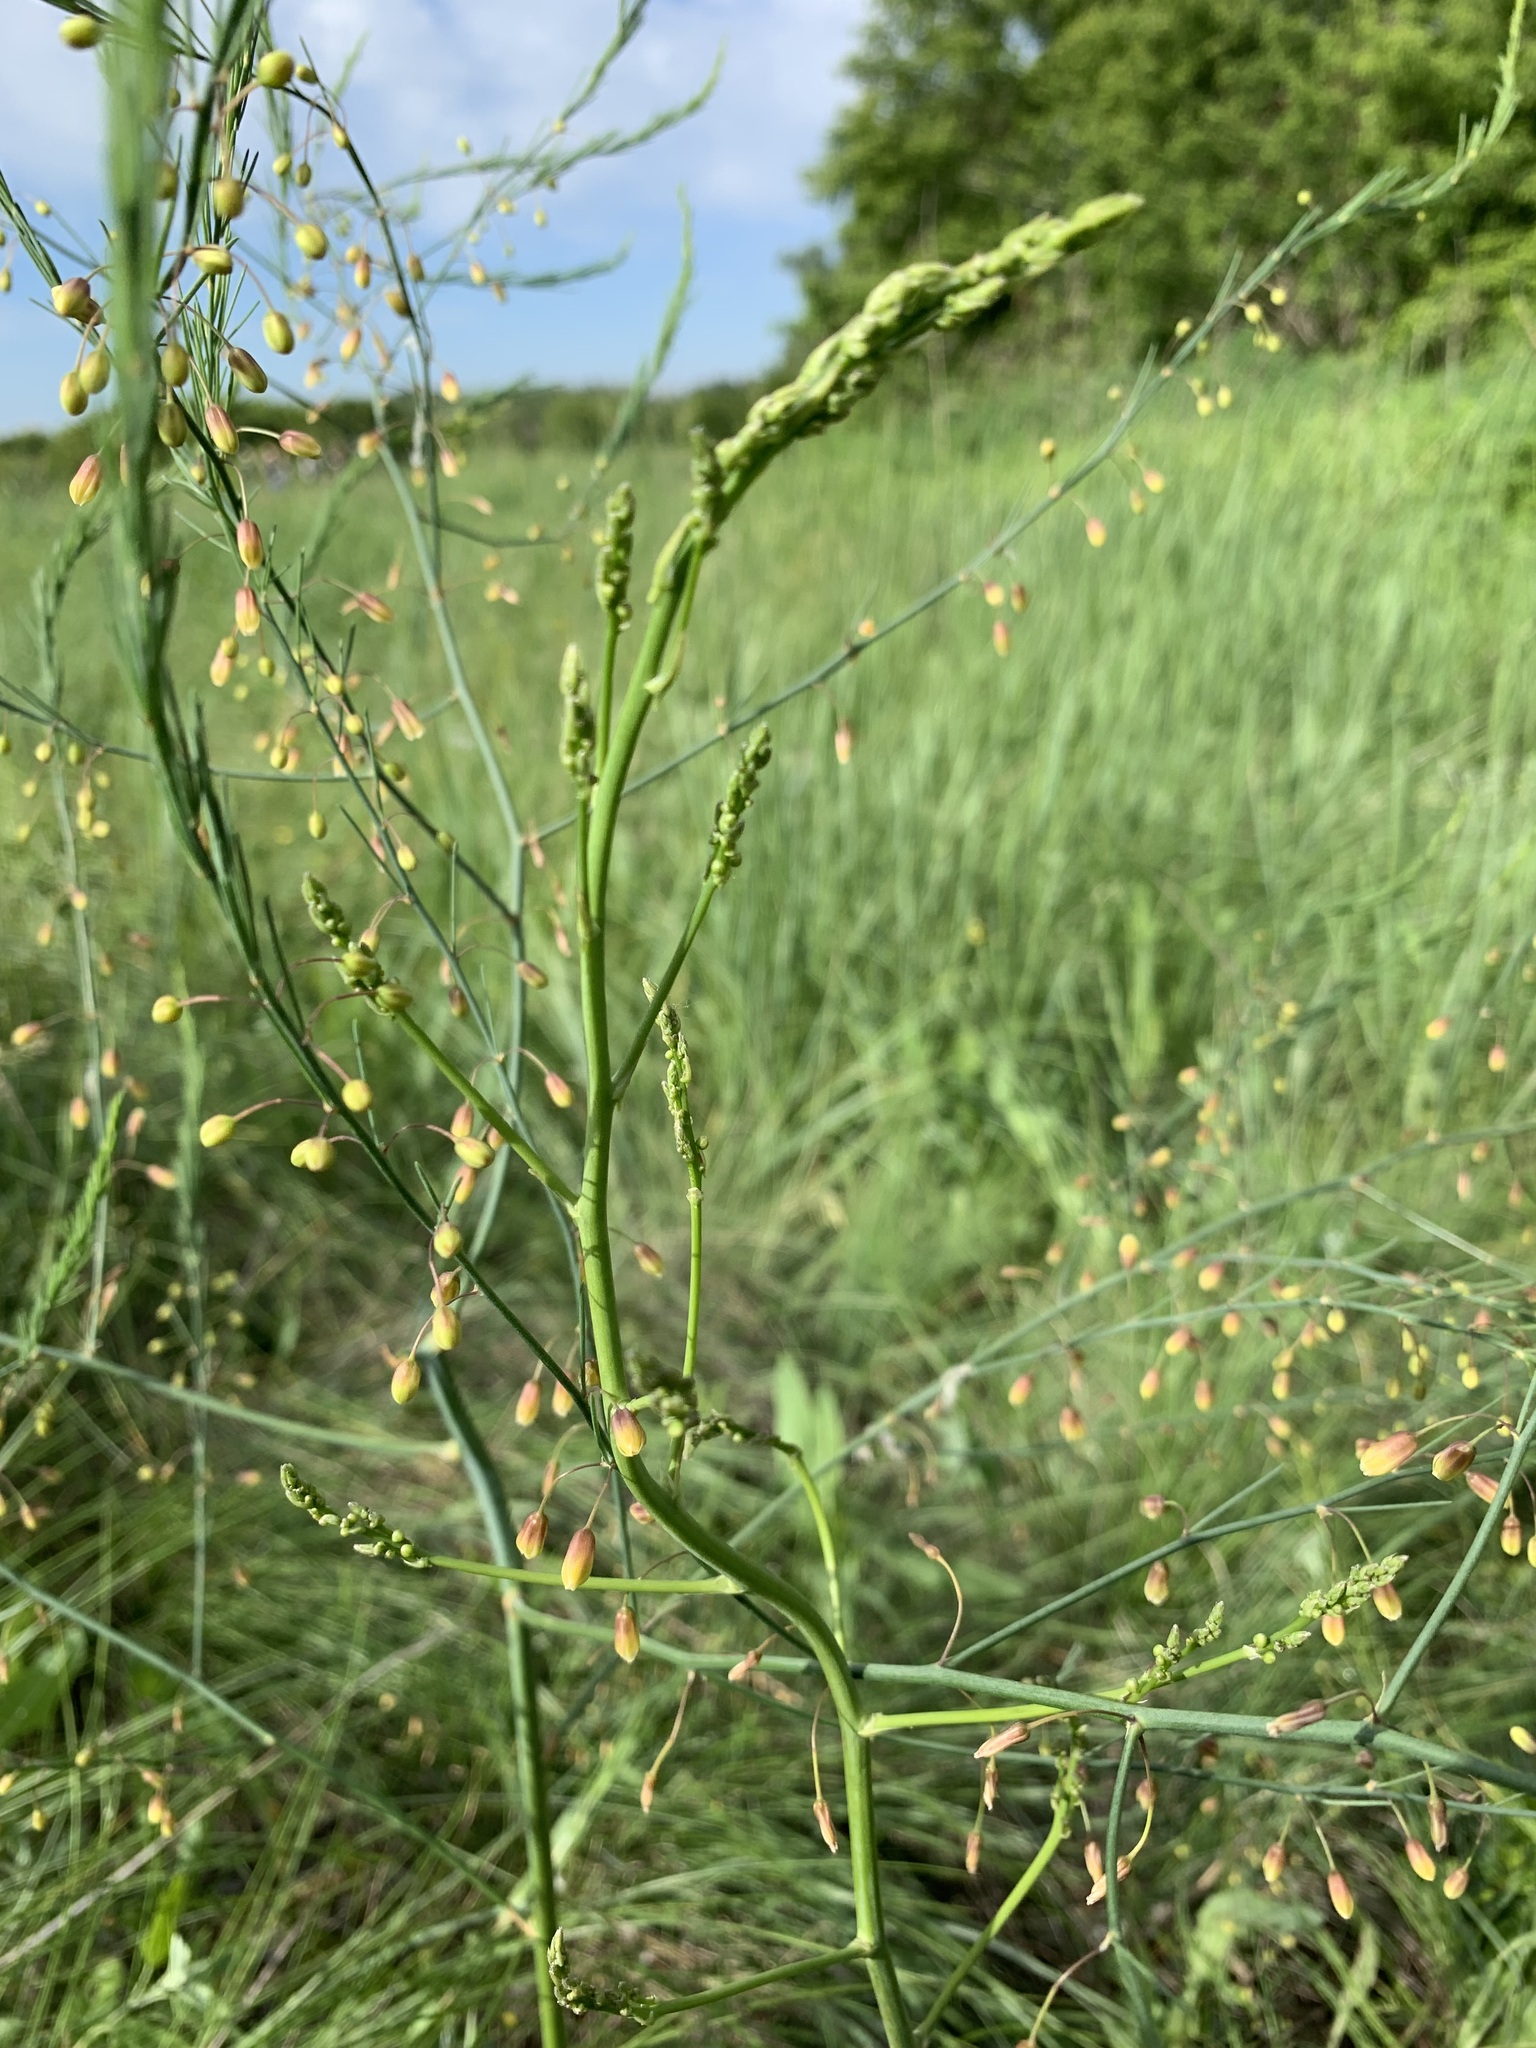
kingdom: Plantae
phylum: Tracheophyta
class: Liliopsida
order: Asparagales
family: Asparagaceae
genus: Asparagus
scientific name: Asparagus officinalis
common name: Garden asparagus
